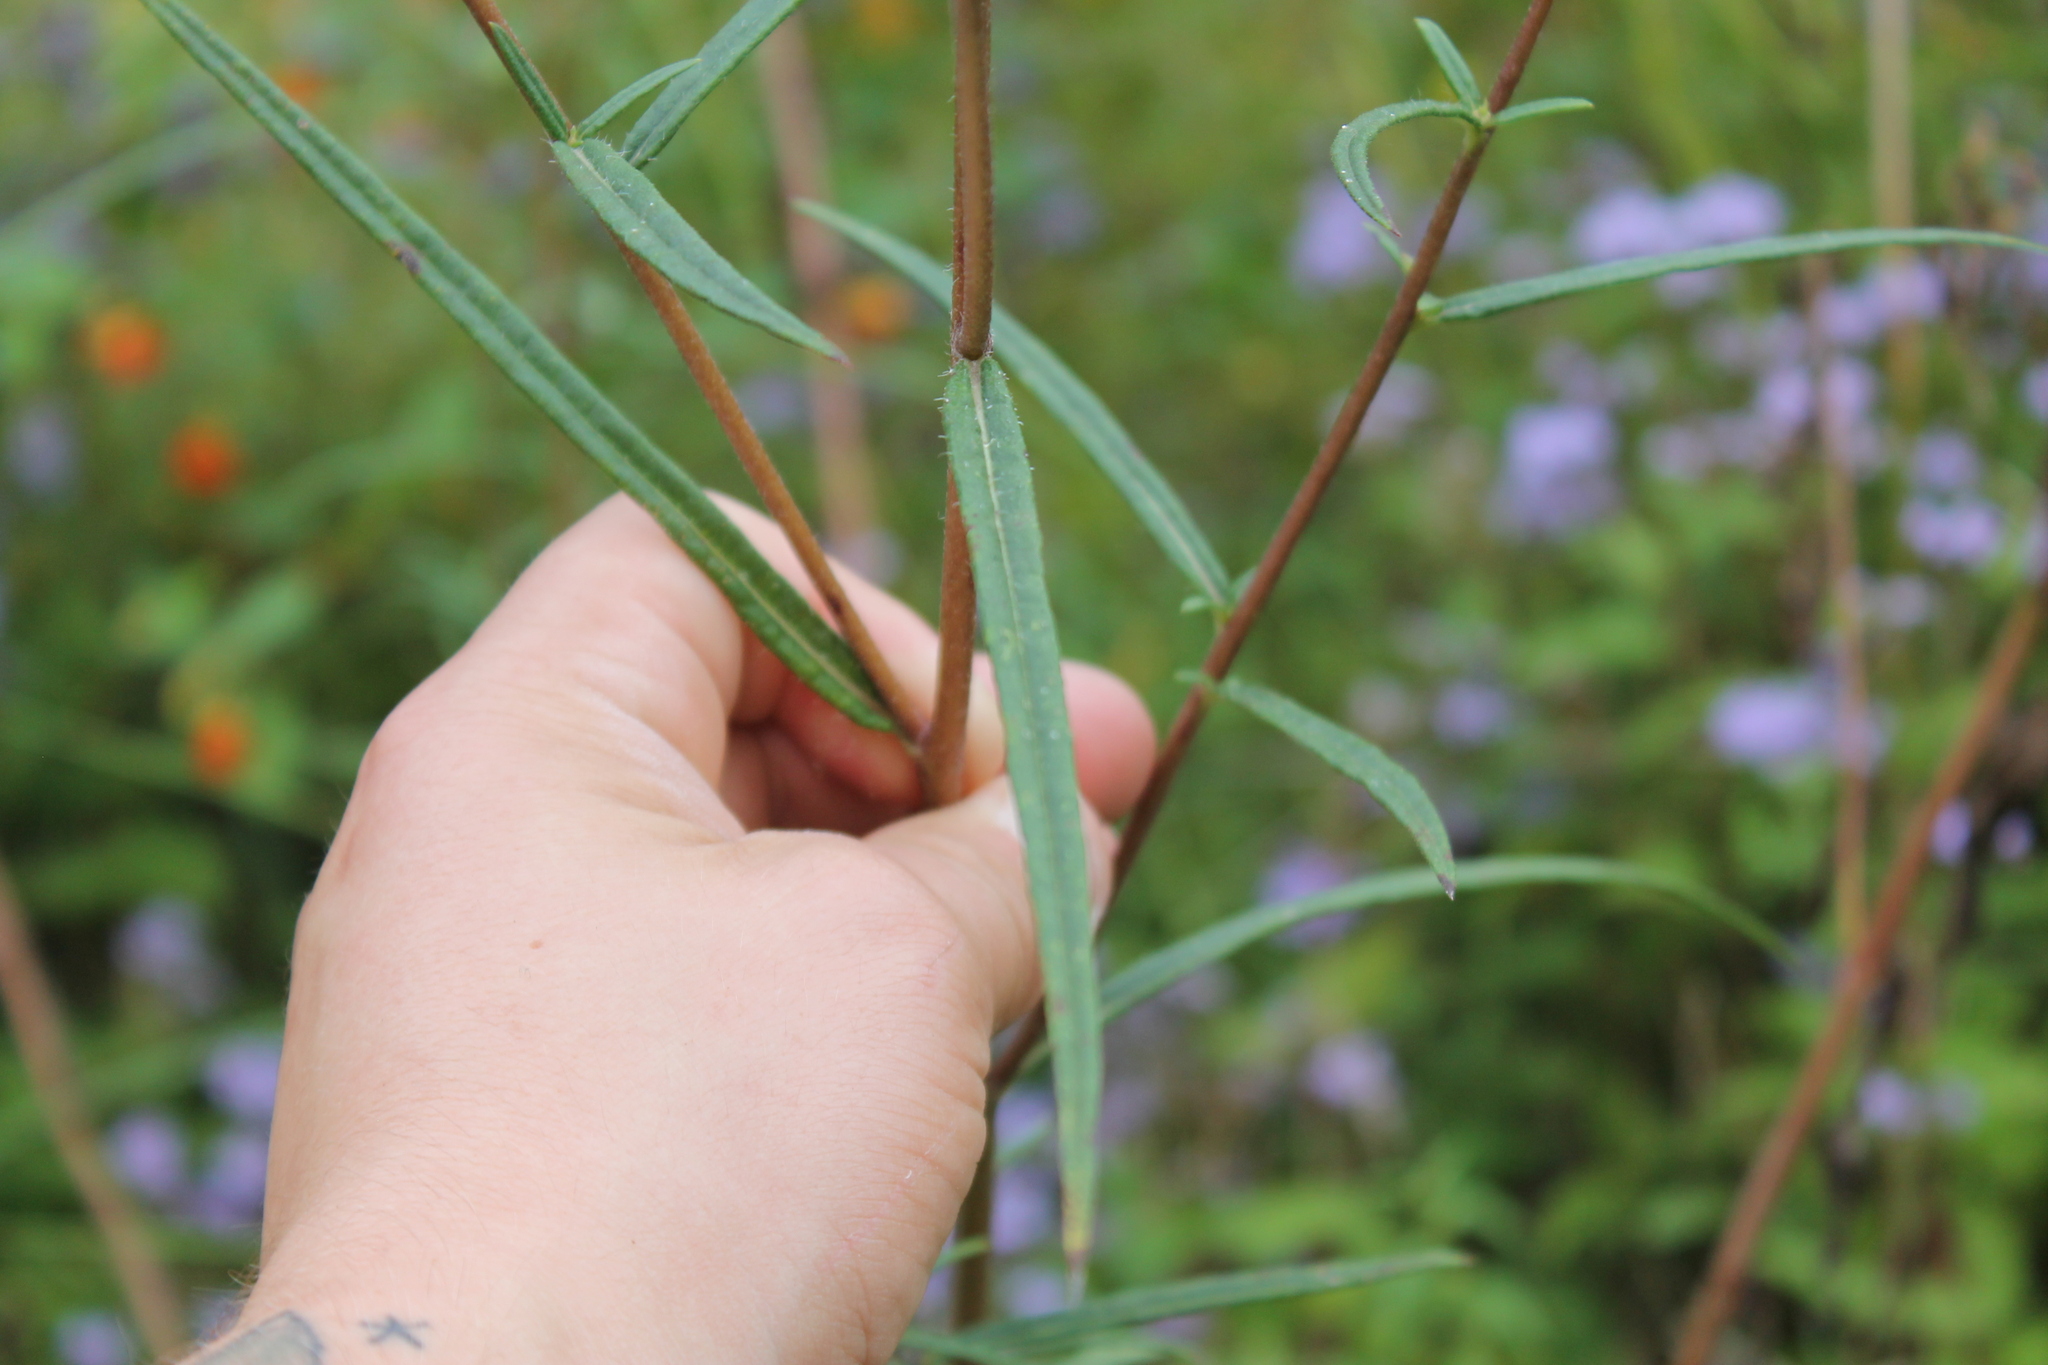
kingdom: Plantae
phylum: Tracheophyta
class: Magnoliopsida
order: Asterales
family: Asteraceae
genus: Helianthus
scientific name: Helianthus angustifolius
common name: Swamp sunflower
